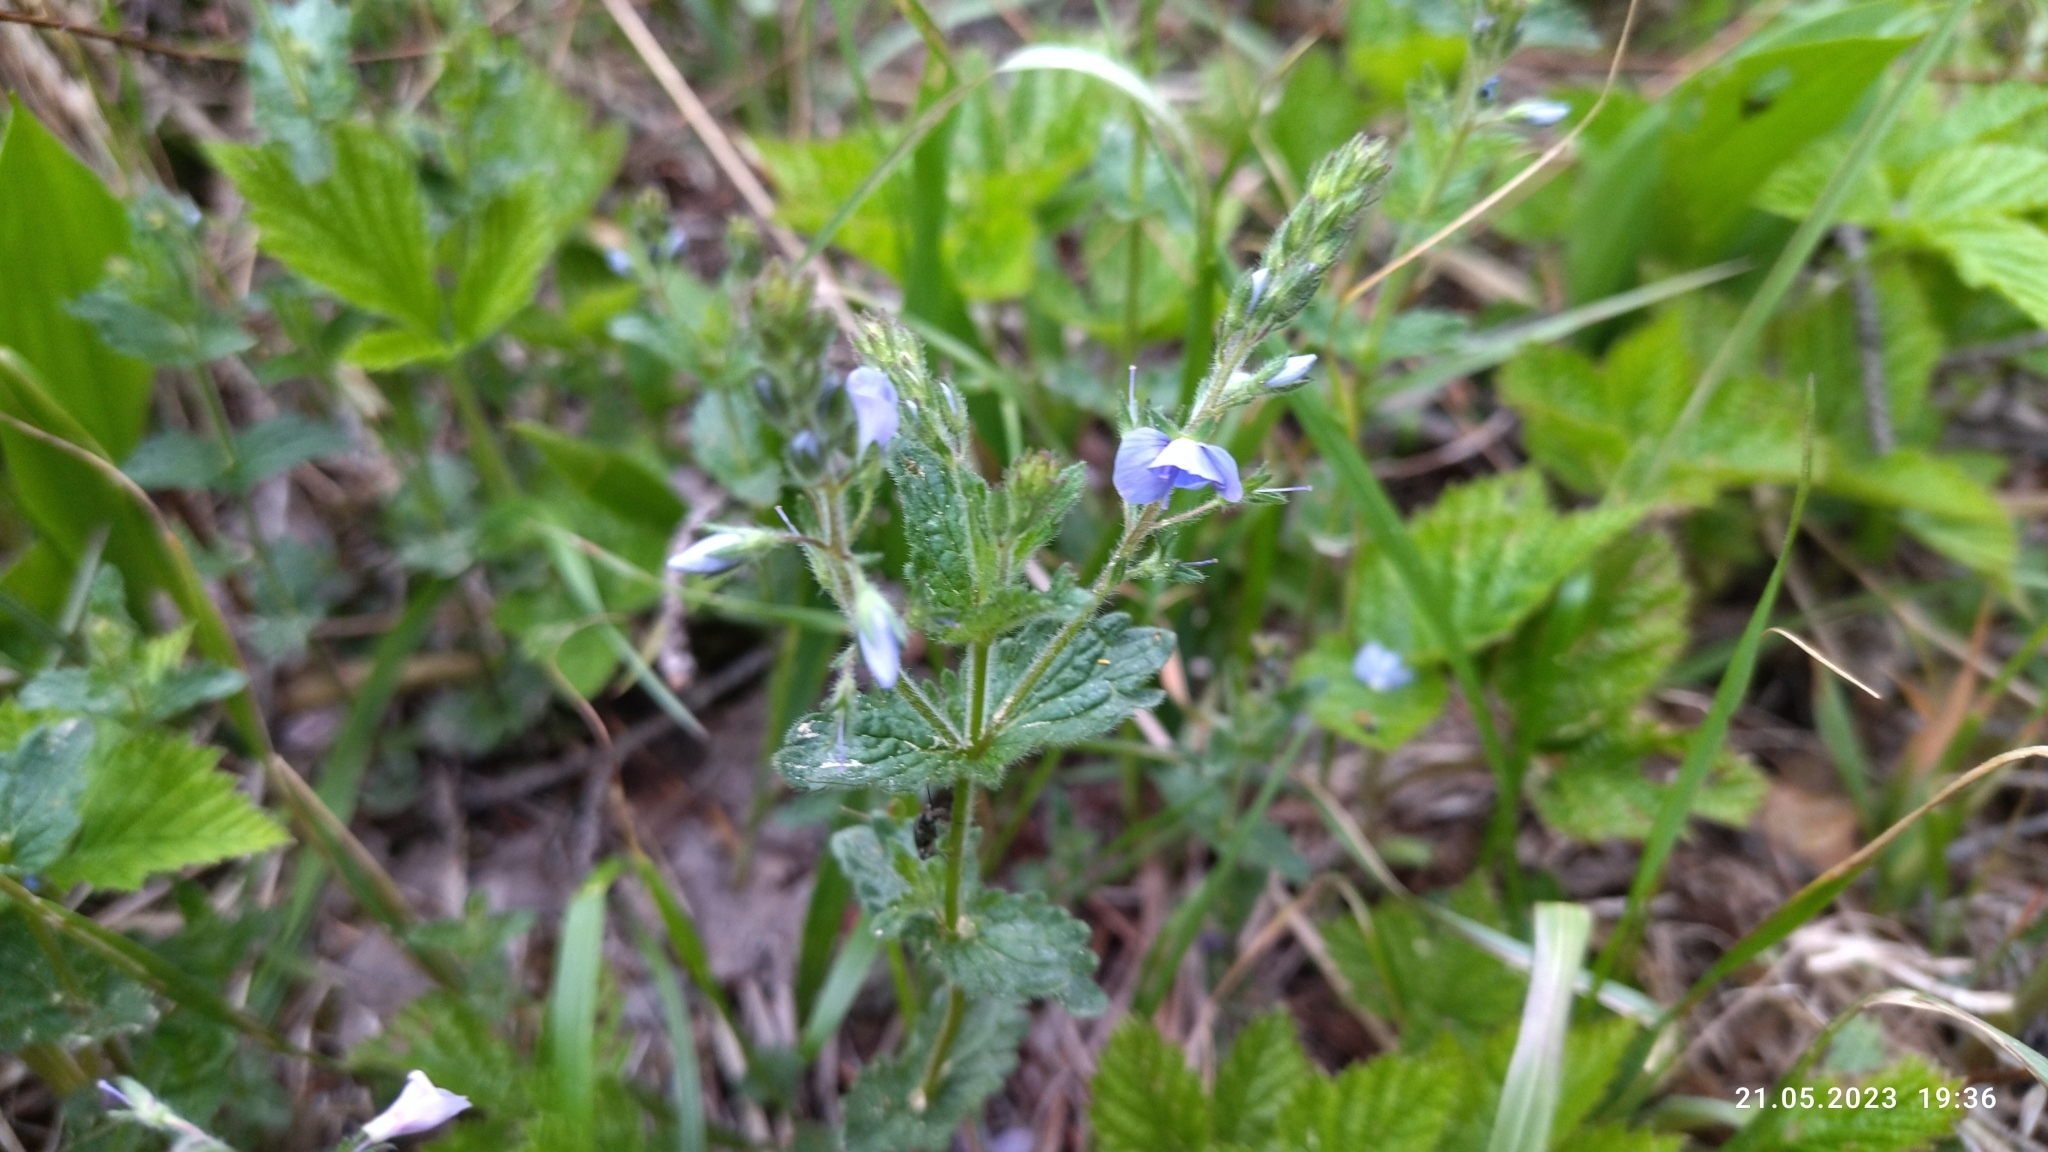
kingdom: Plantae
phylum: Tracheophyta
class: Magnoliopsida
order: Lamiales
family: Plantaginaceae
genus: Veronica
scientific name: Veronica chamaedrys
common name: Germander speedwell
